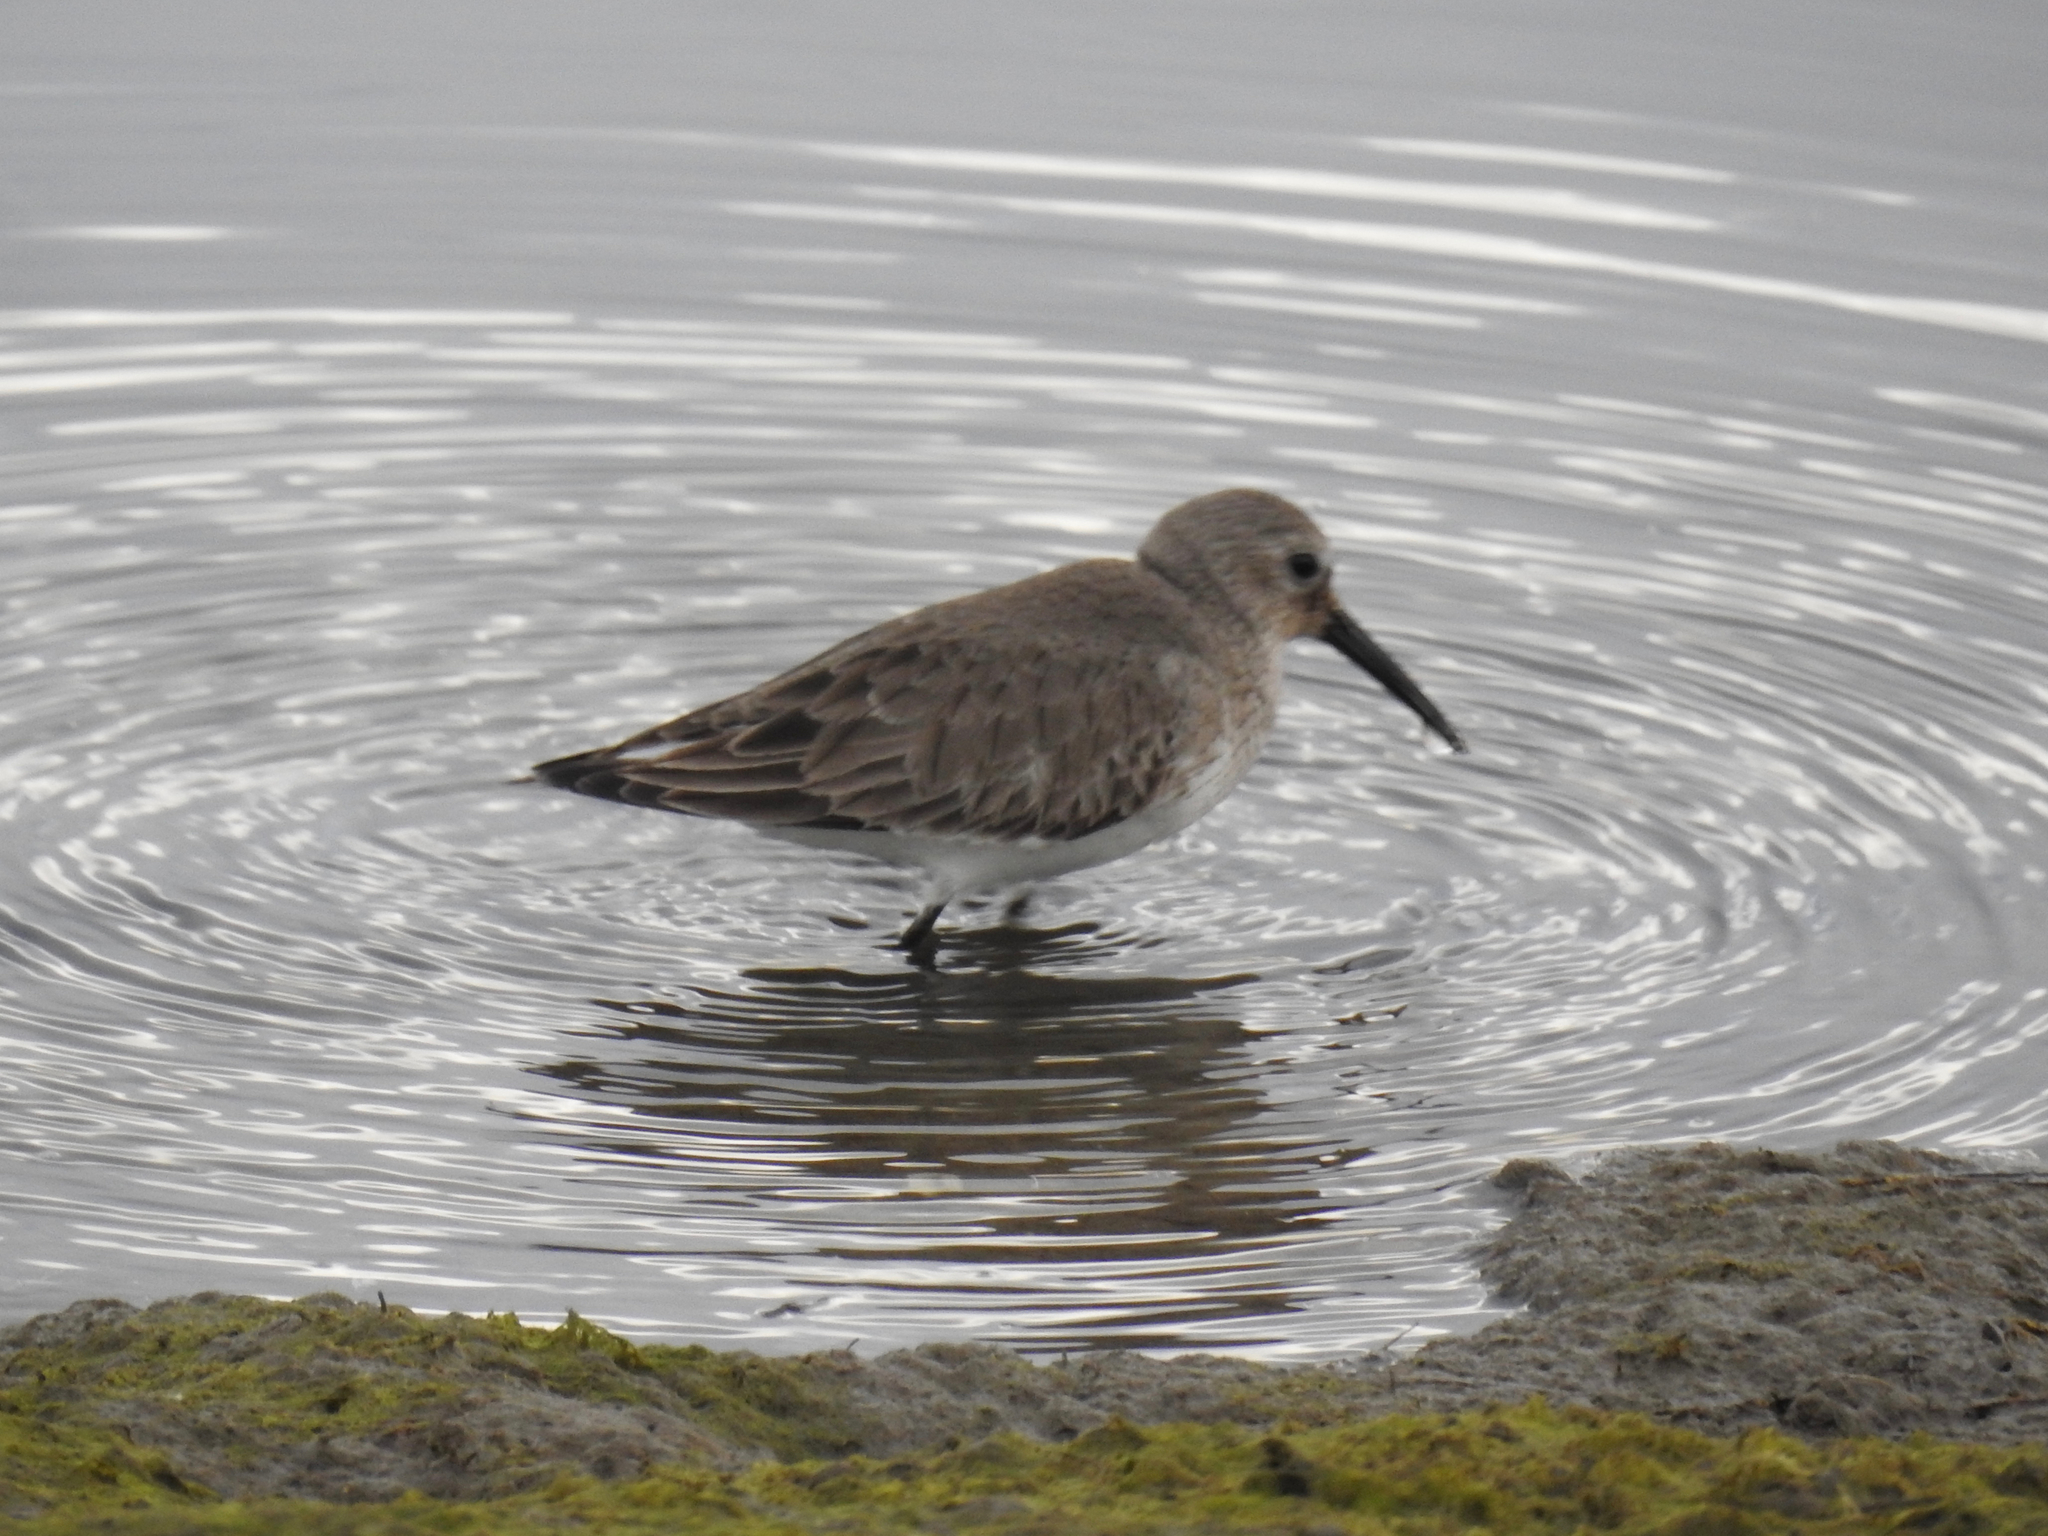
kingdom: Animalia
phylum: Chordata
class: Aves
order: Charadriiformes
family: Scolopacidae
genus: Calidris
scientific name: Calidris alpina
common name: Dunlin
